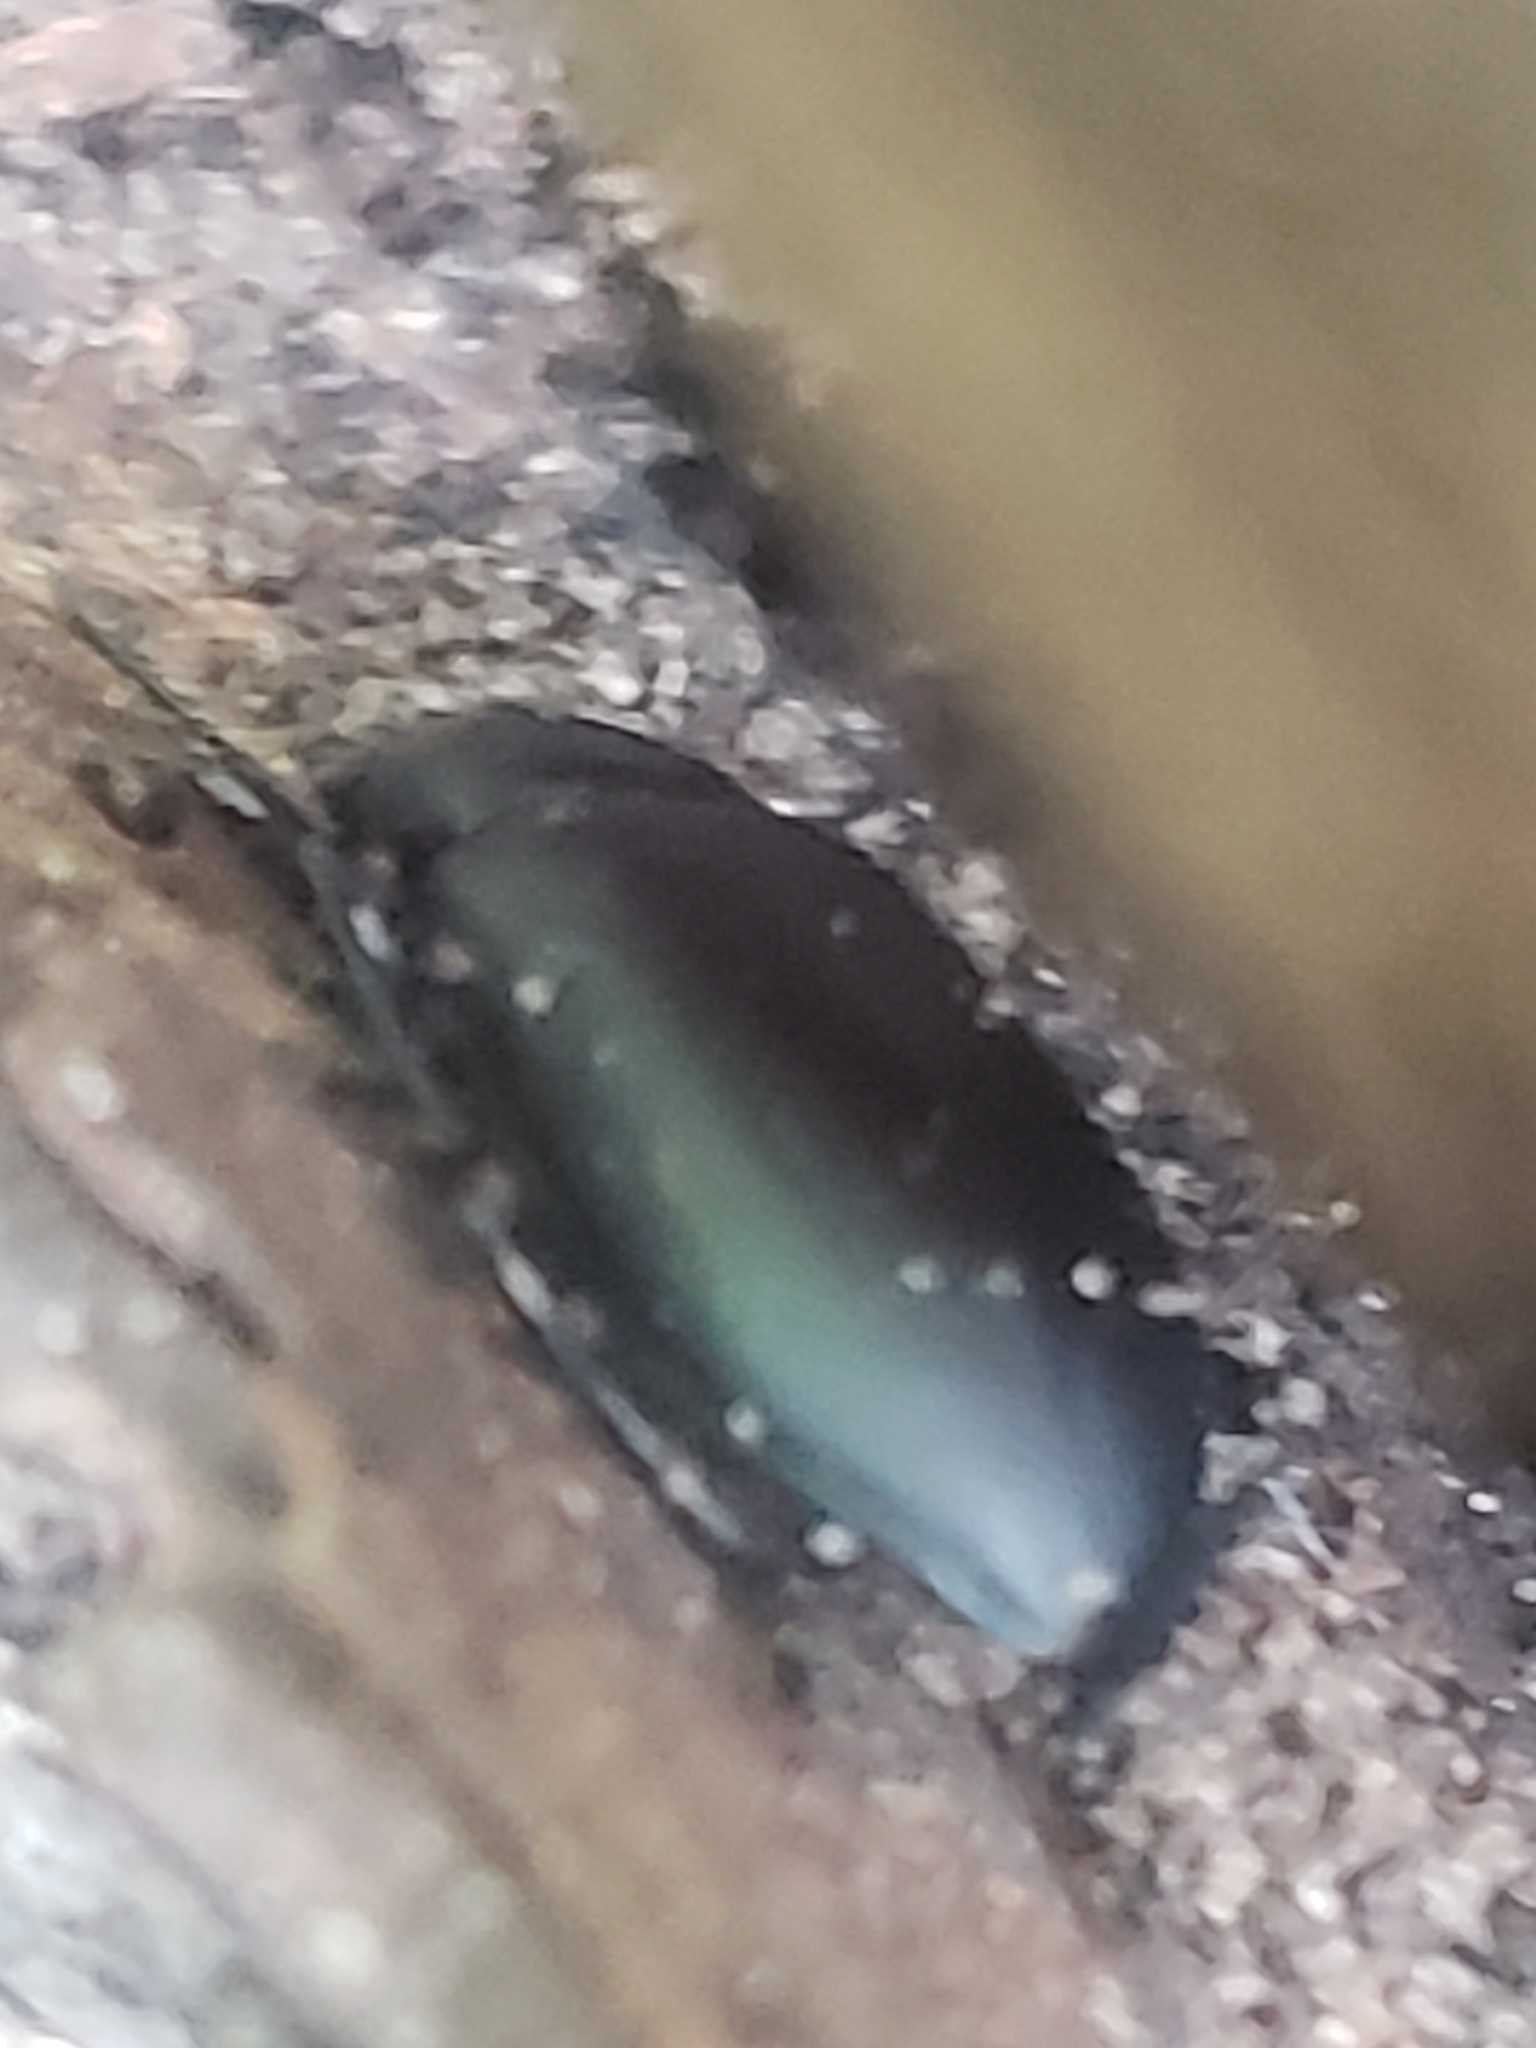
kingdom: Animalia
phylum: Arthropoda
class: Insecta
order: Coleoptera
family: Tenebrionidae
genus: Alobates
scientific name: Alobates
